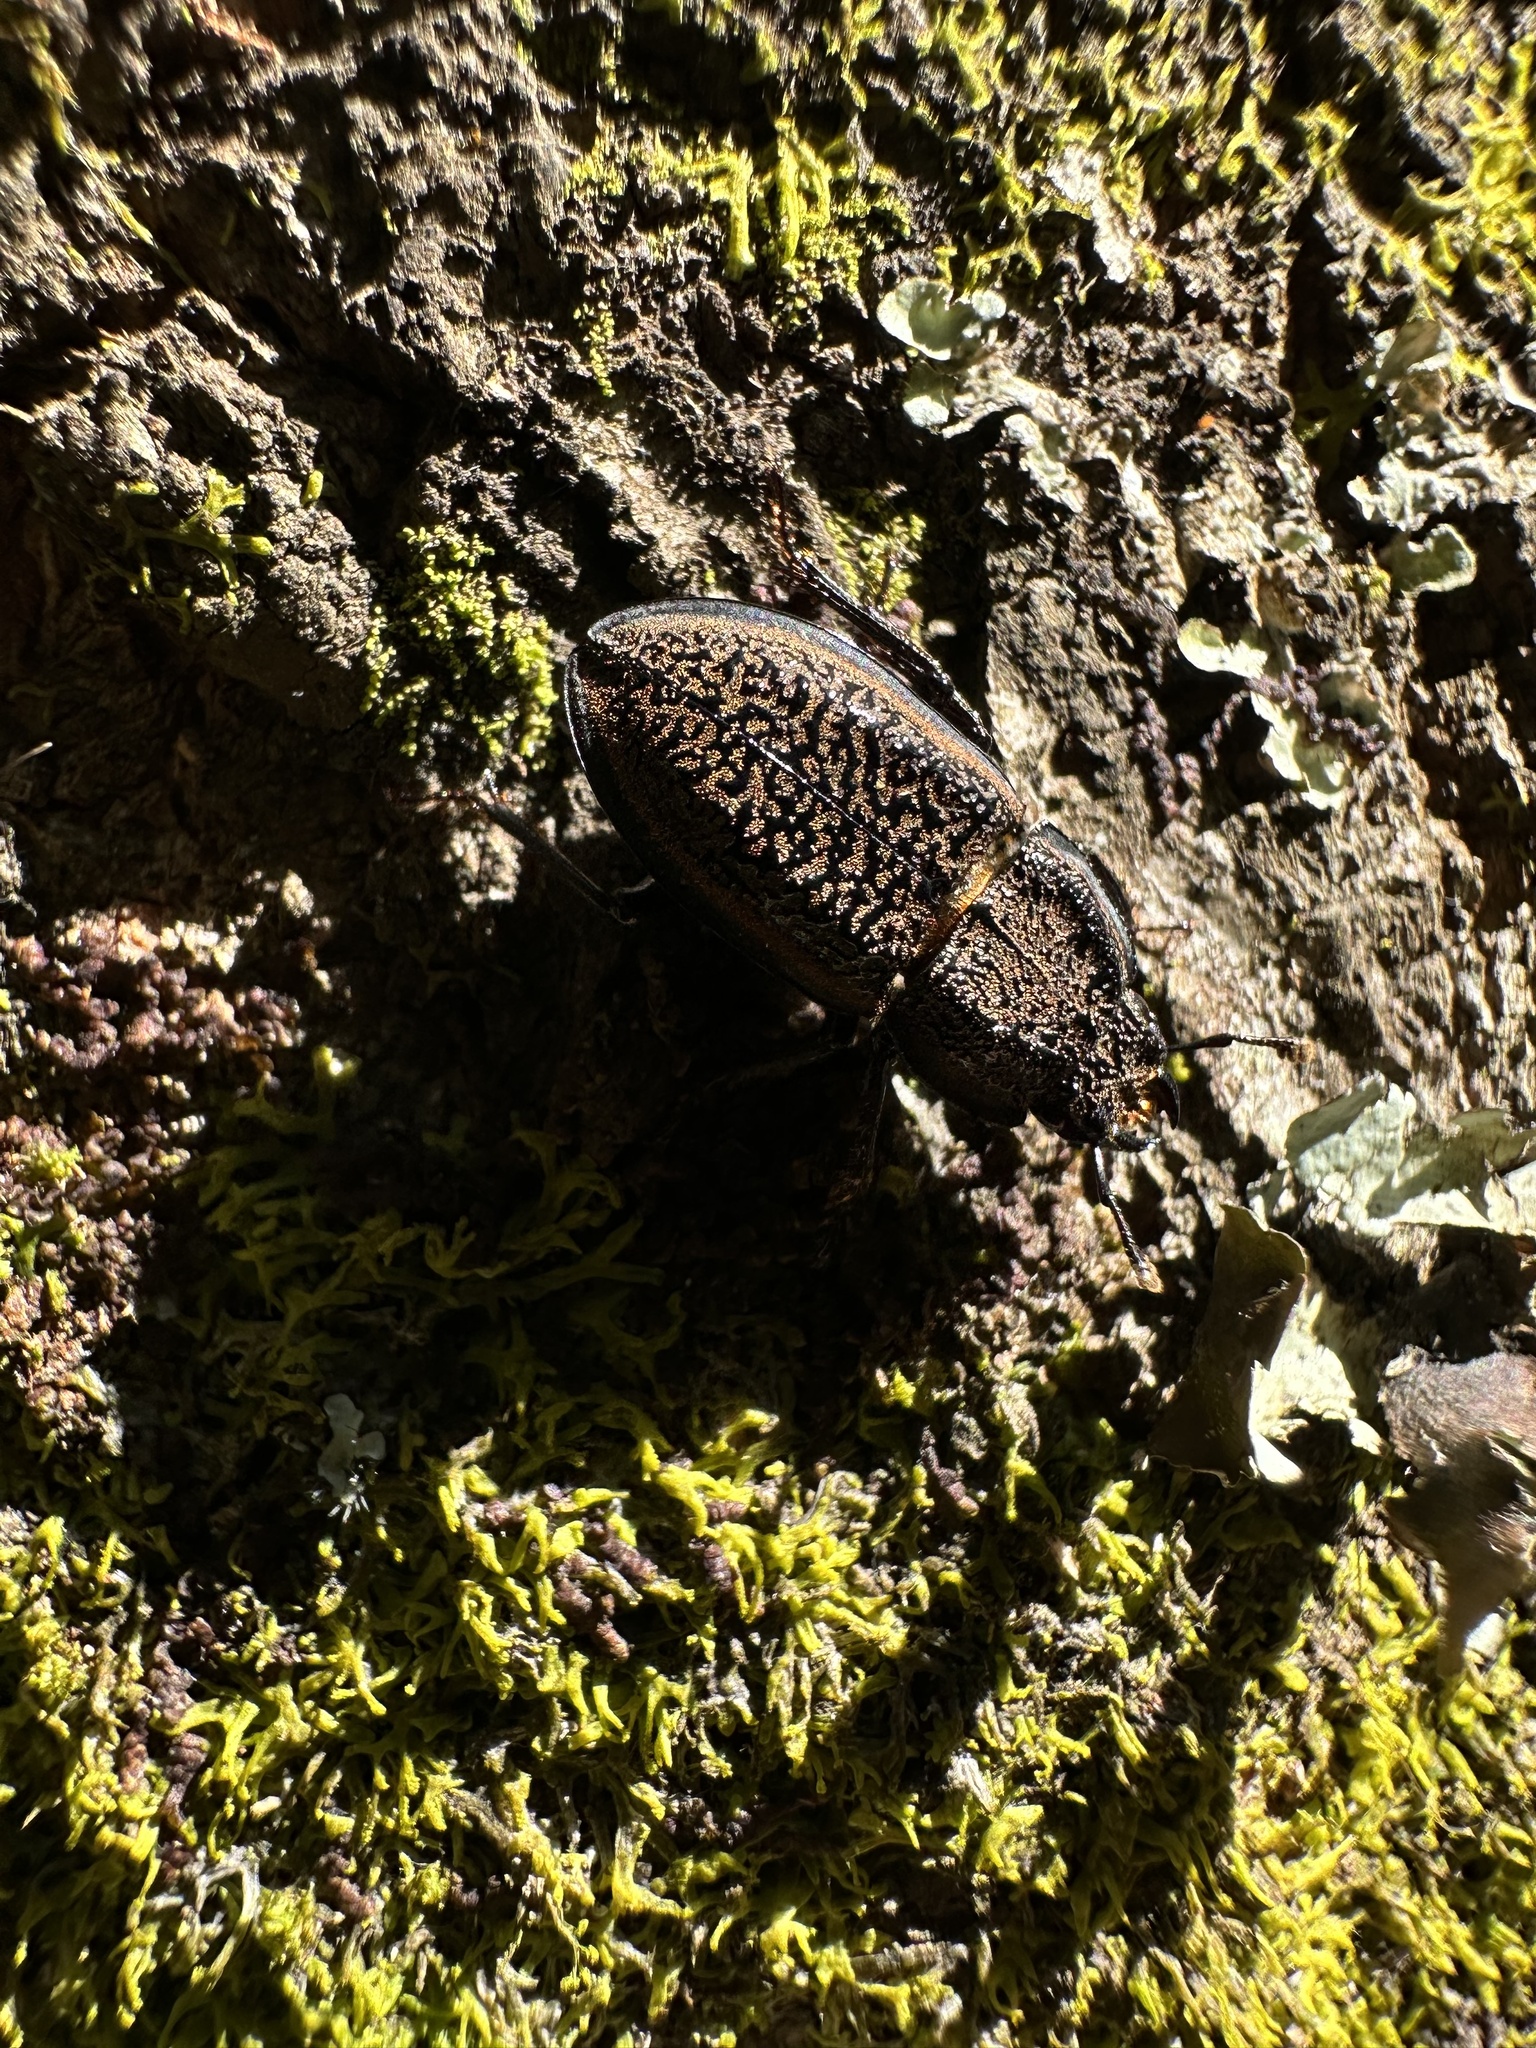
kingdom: Animalia
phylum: Arthropoda
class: Insecta
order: Coleoptera
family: Lucanidae
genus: Erichius
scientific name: Erichius caelatus
